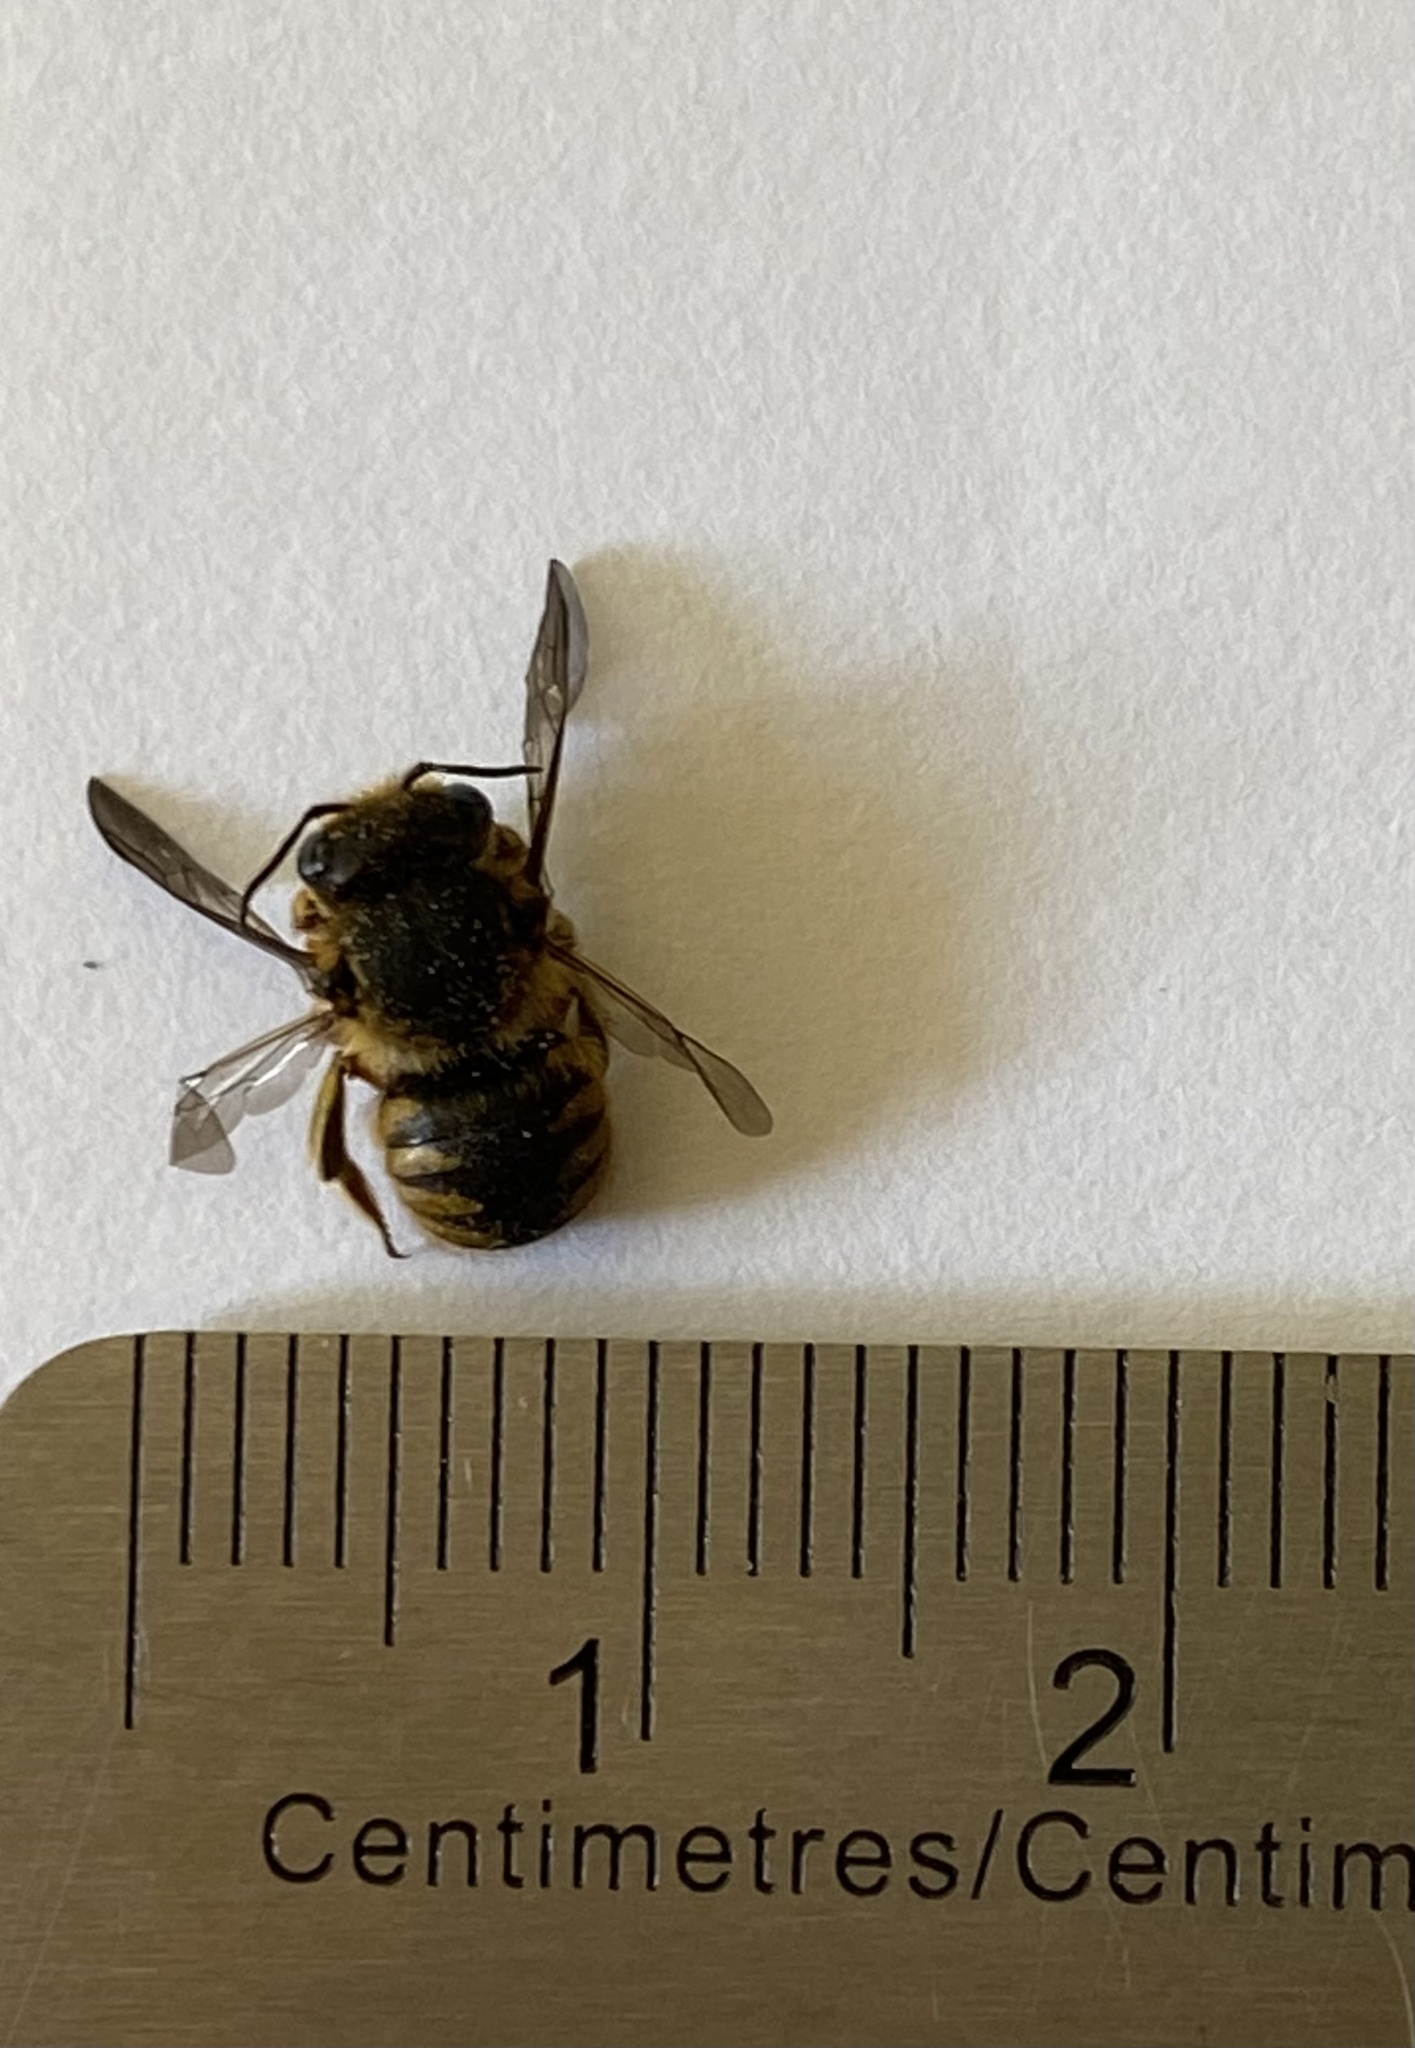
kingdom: Animalia
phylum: Arthropoda
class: Insecta
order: Hymenoptera
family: Megachilidae
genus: Anthidium
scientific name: Anthidium manicatum
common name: Wool carder bee
